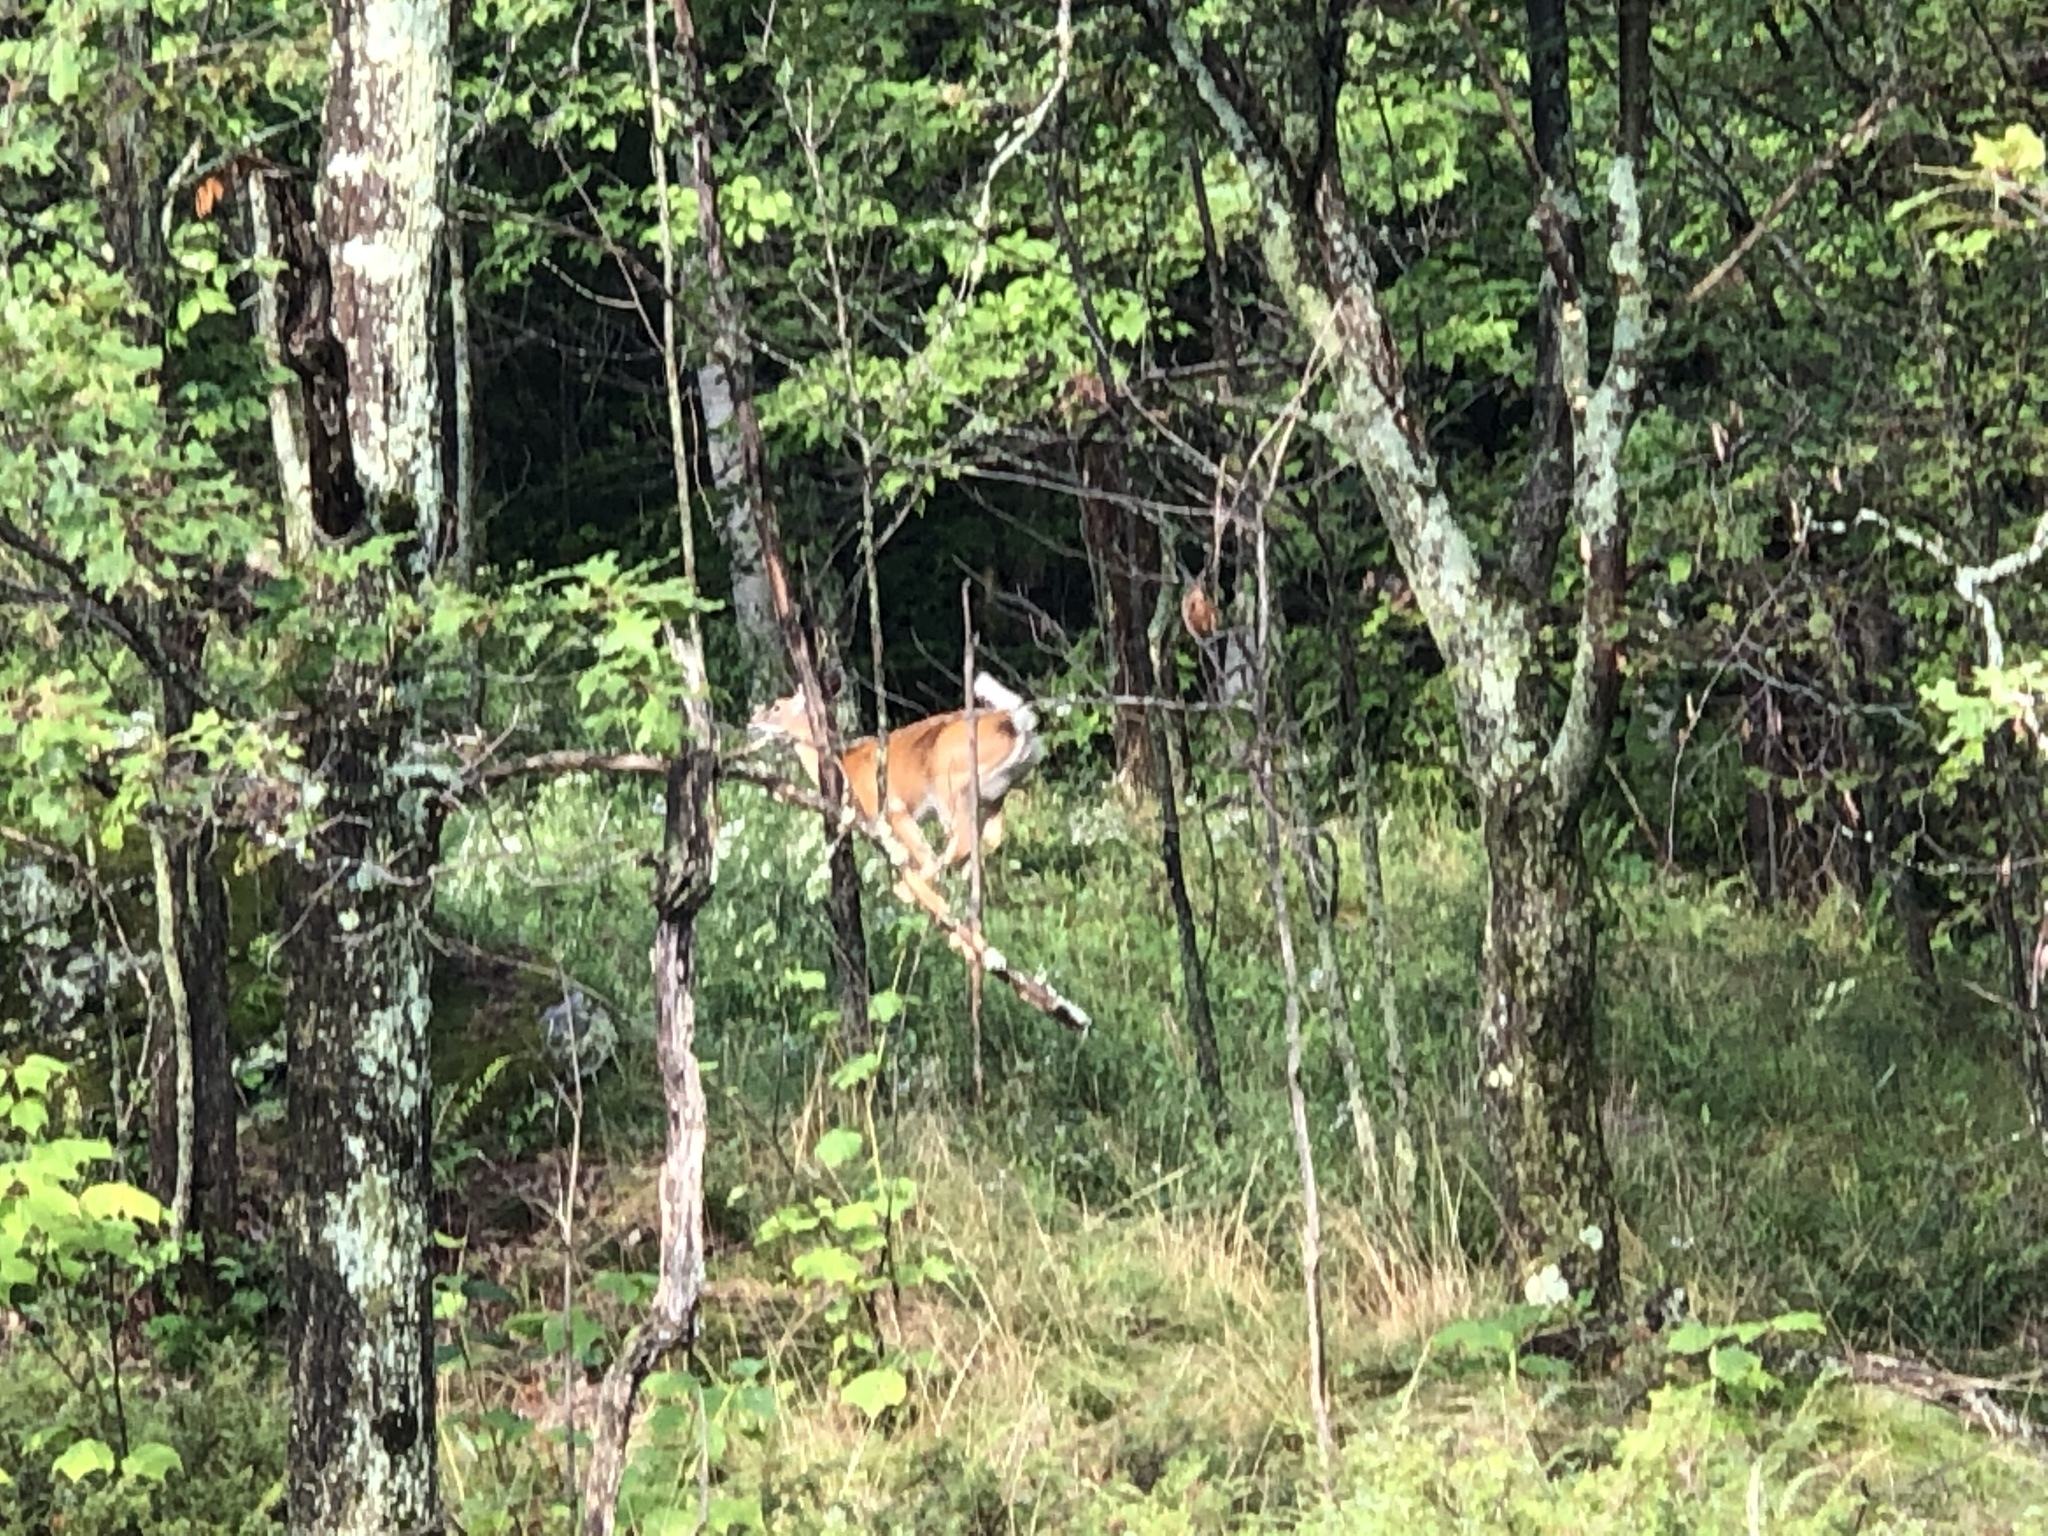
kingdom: Animalia
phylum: Chordata
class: Mammalia
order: Artiodactyla
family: Cervidae
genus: Odocoileus
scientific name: Odocoileus virginianus
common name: White-tailed deer
